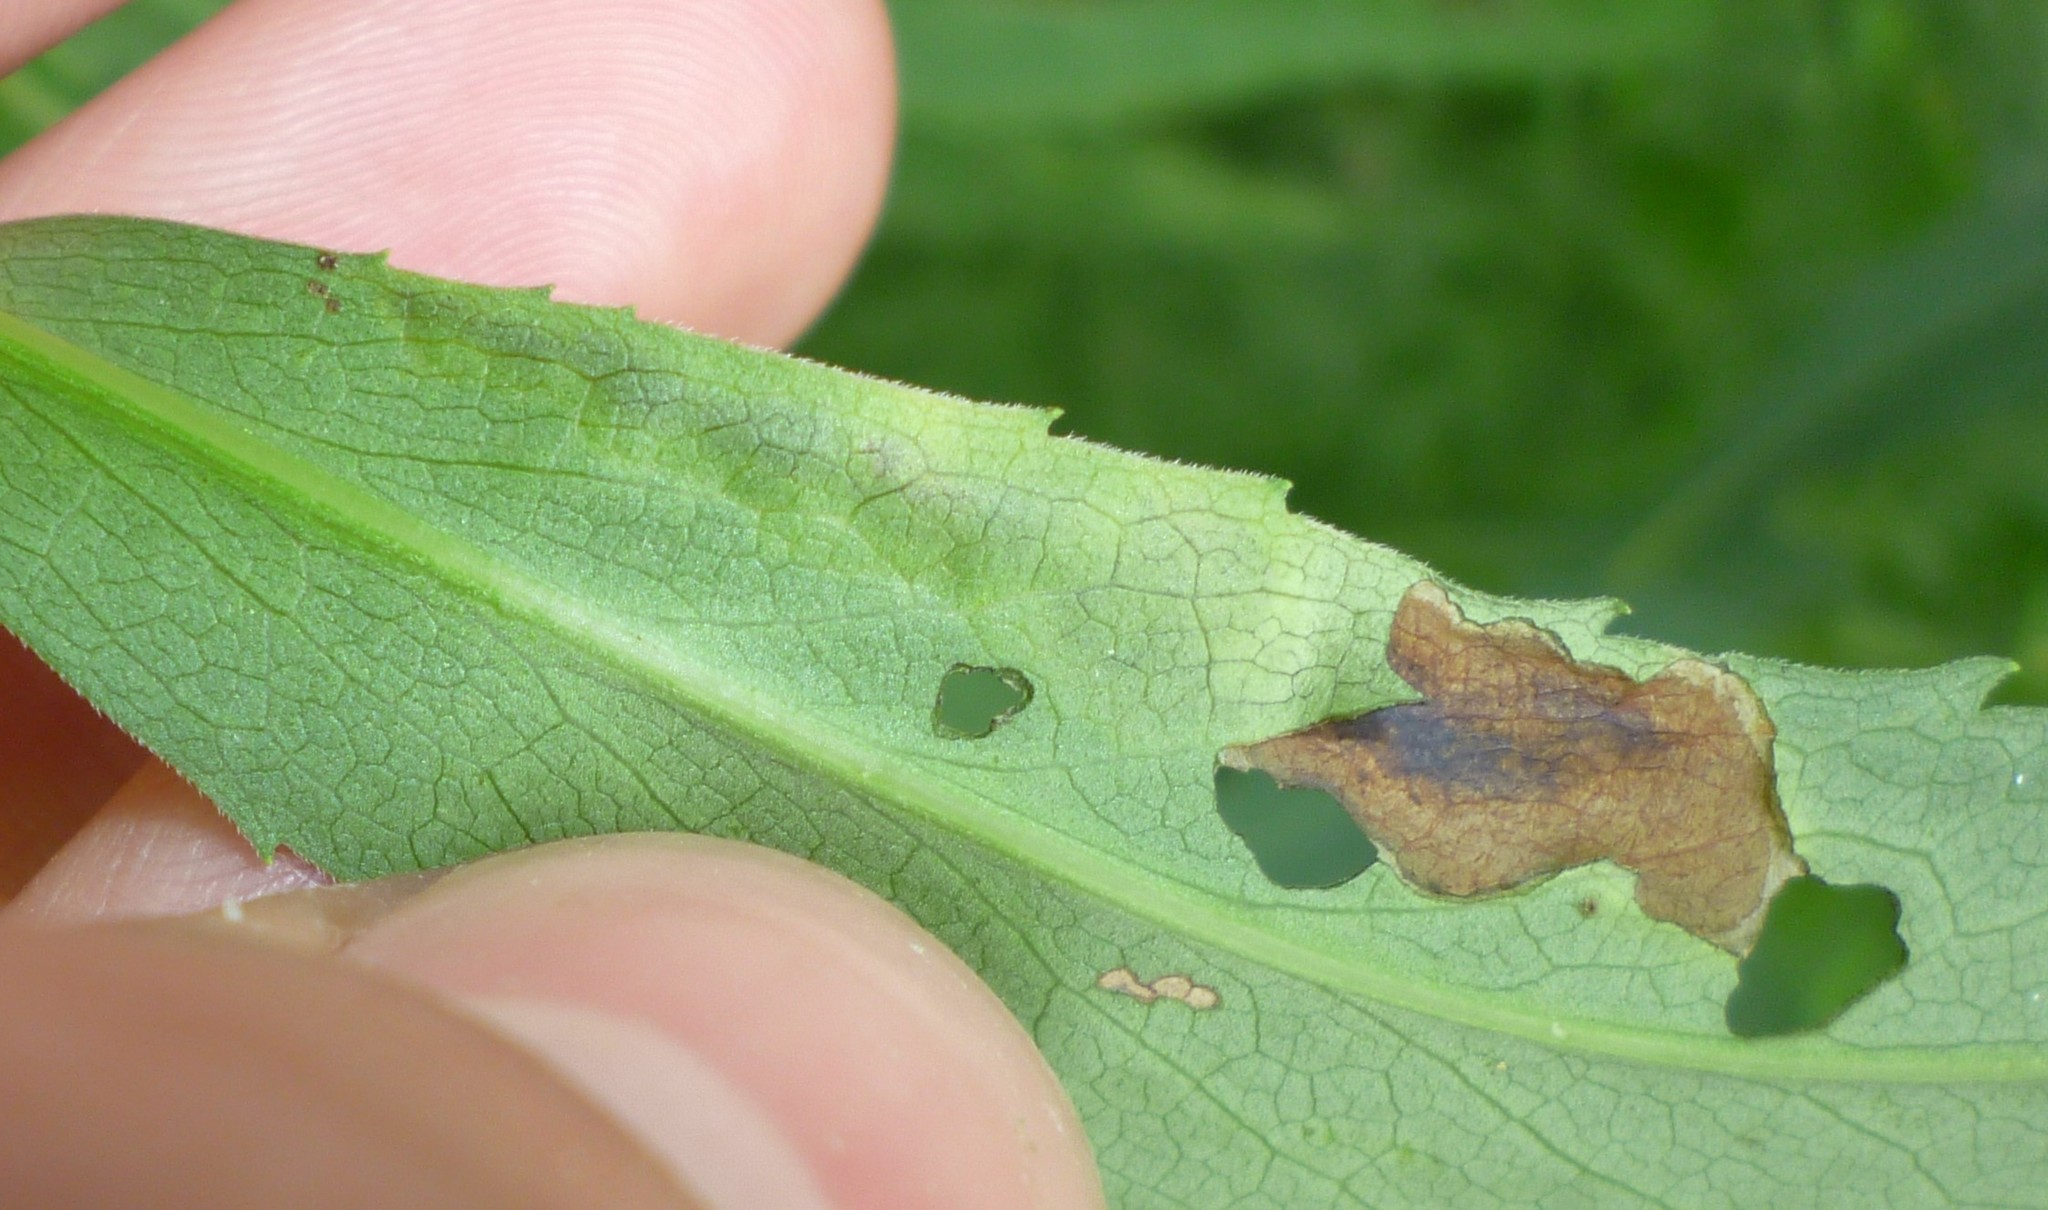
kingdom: Animalia
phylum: Arthropoda
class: Insecta
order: Diptera
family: Agromyzidae
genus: Nemorimyza
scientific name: Nemorimyza posticata
